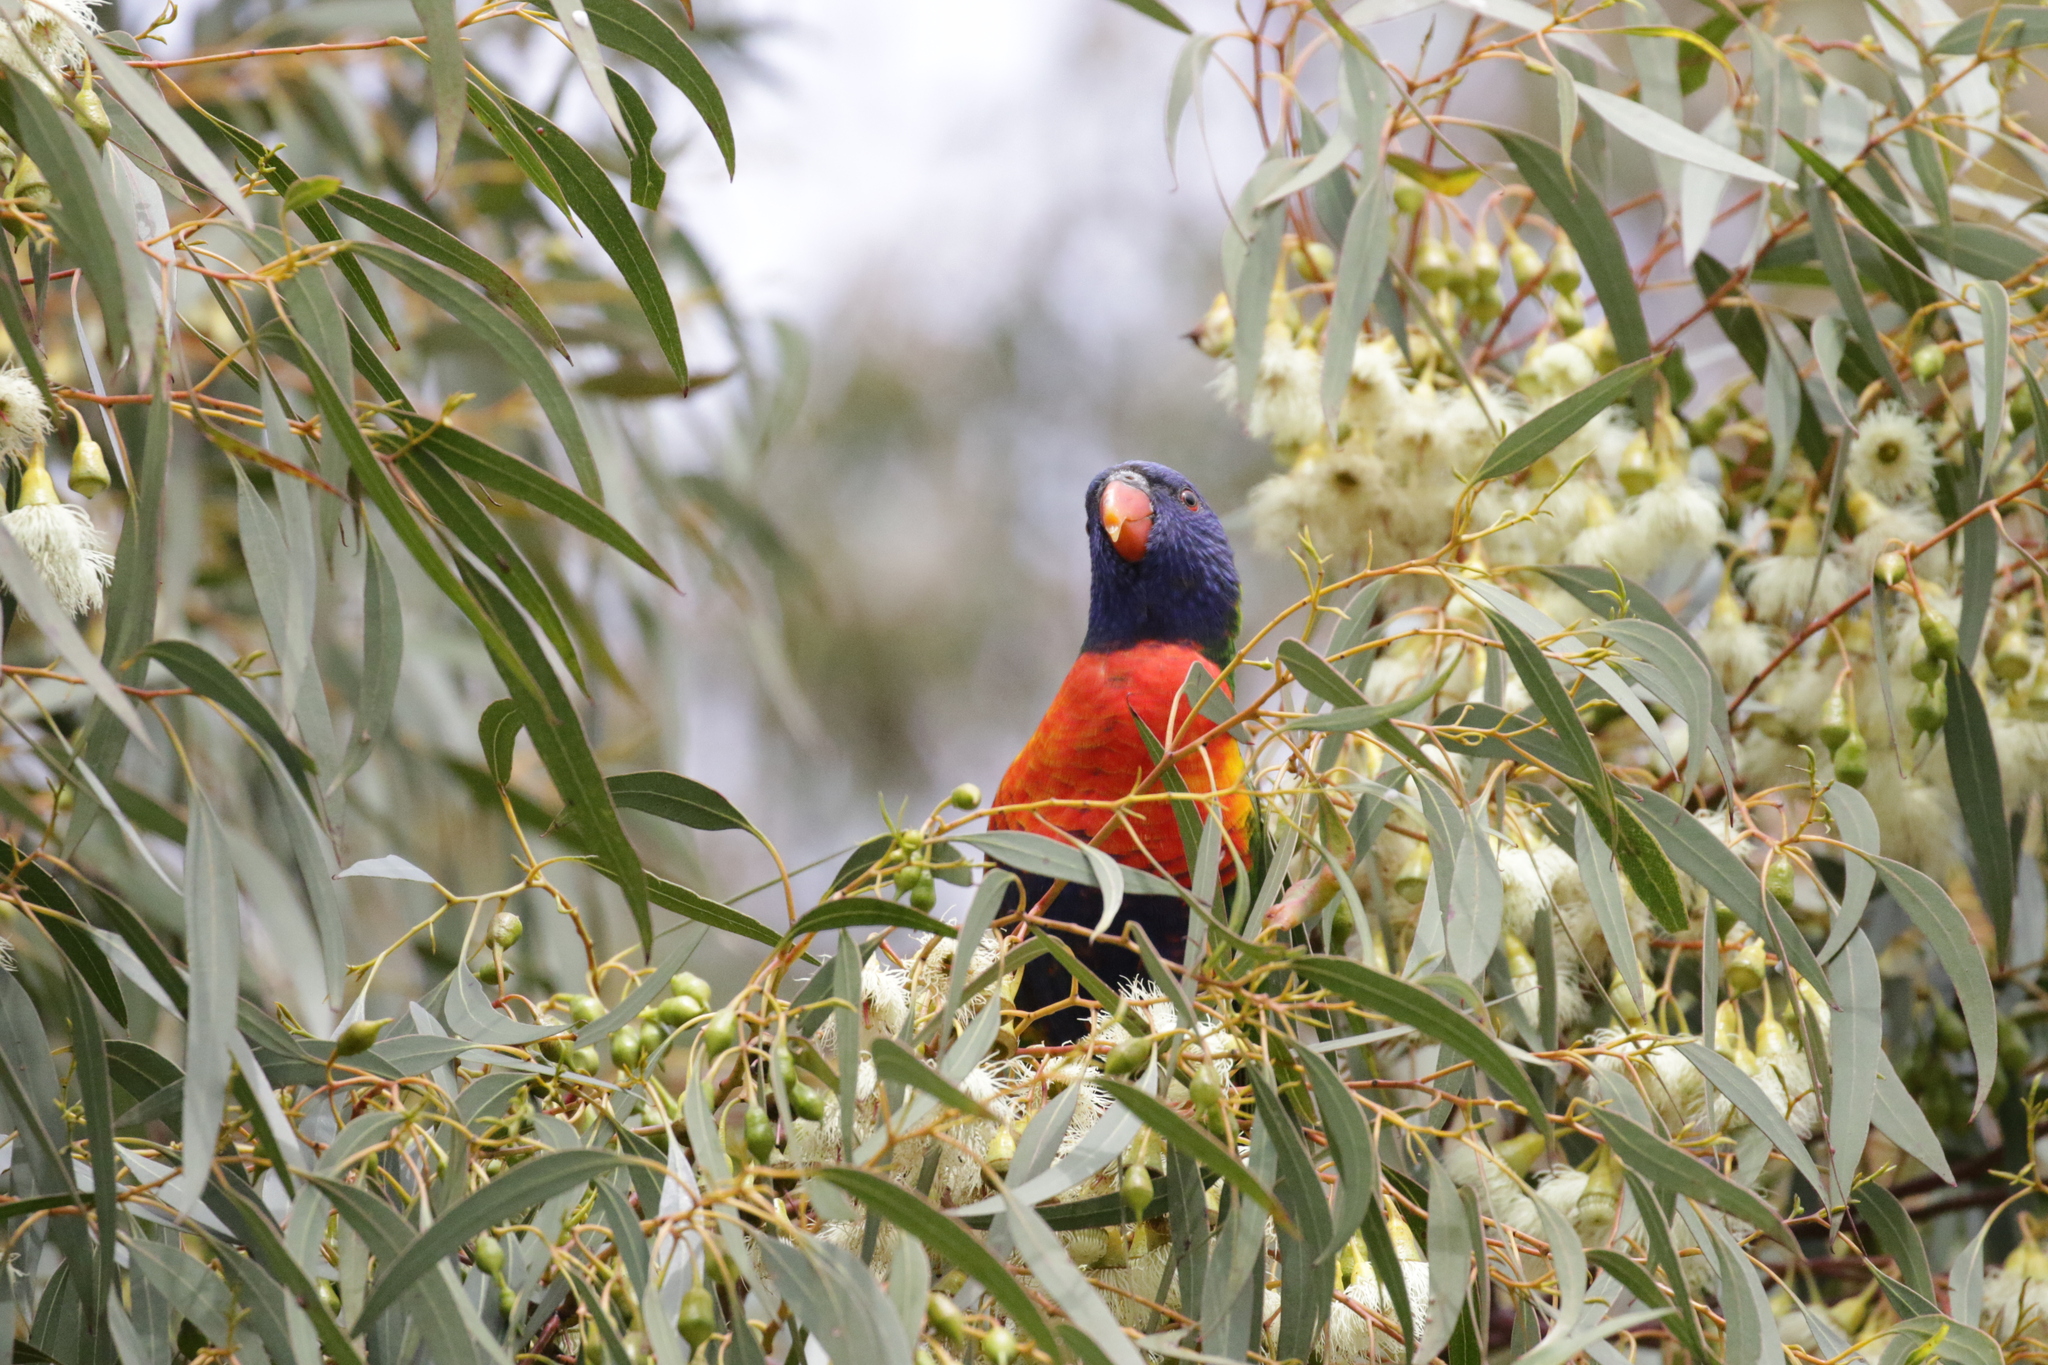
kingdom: Animalia
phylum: Chordata
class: Aves
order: Psittaciformes
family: Psittacidae
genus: Trichoglossus
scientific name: Trichoglossus haematodus
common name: Coconut lorikeet
